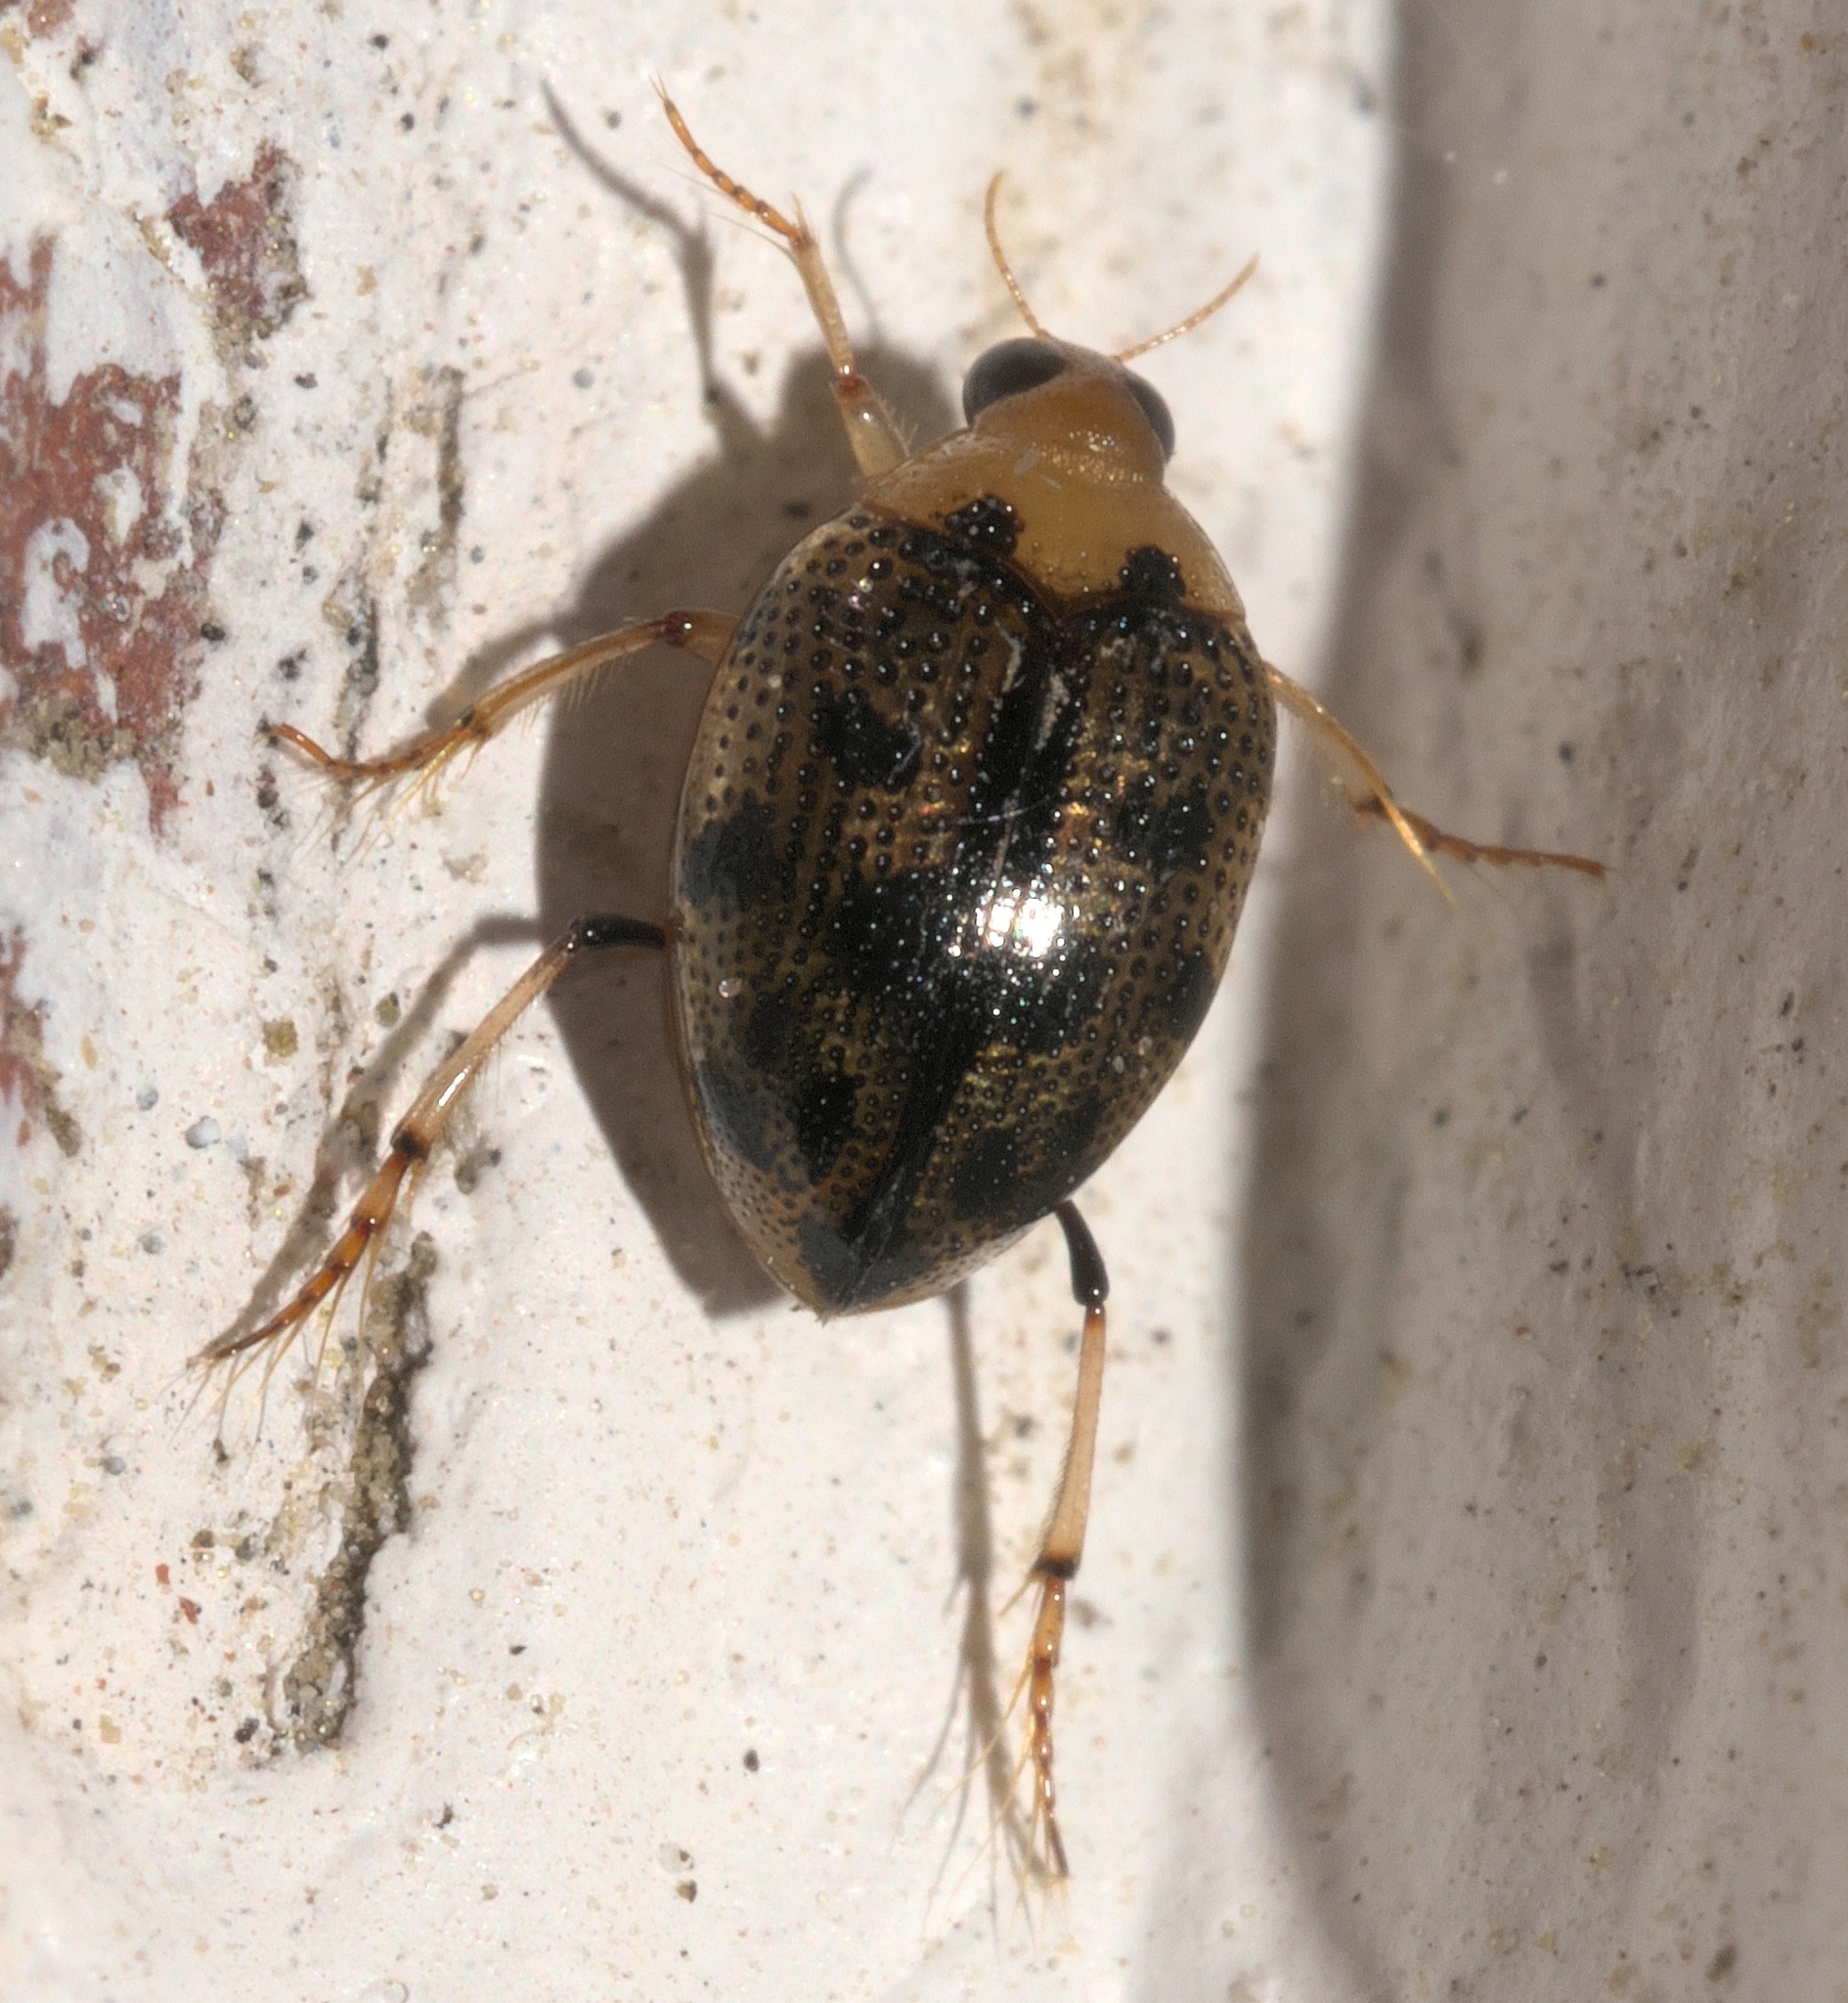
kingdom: Animalia
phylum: Arthropoda
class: Insecta
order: Coleoptera
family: Haliplidae
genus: Peltodytes
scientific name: Peltodytes
